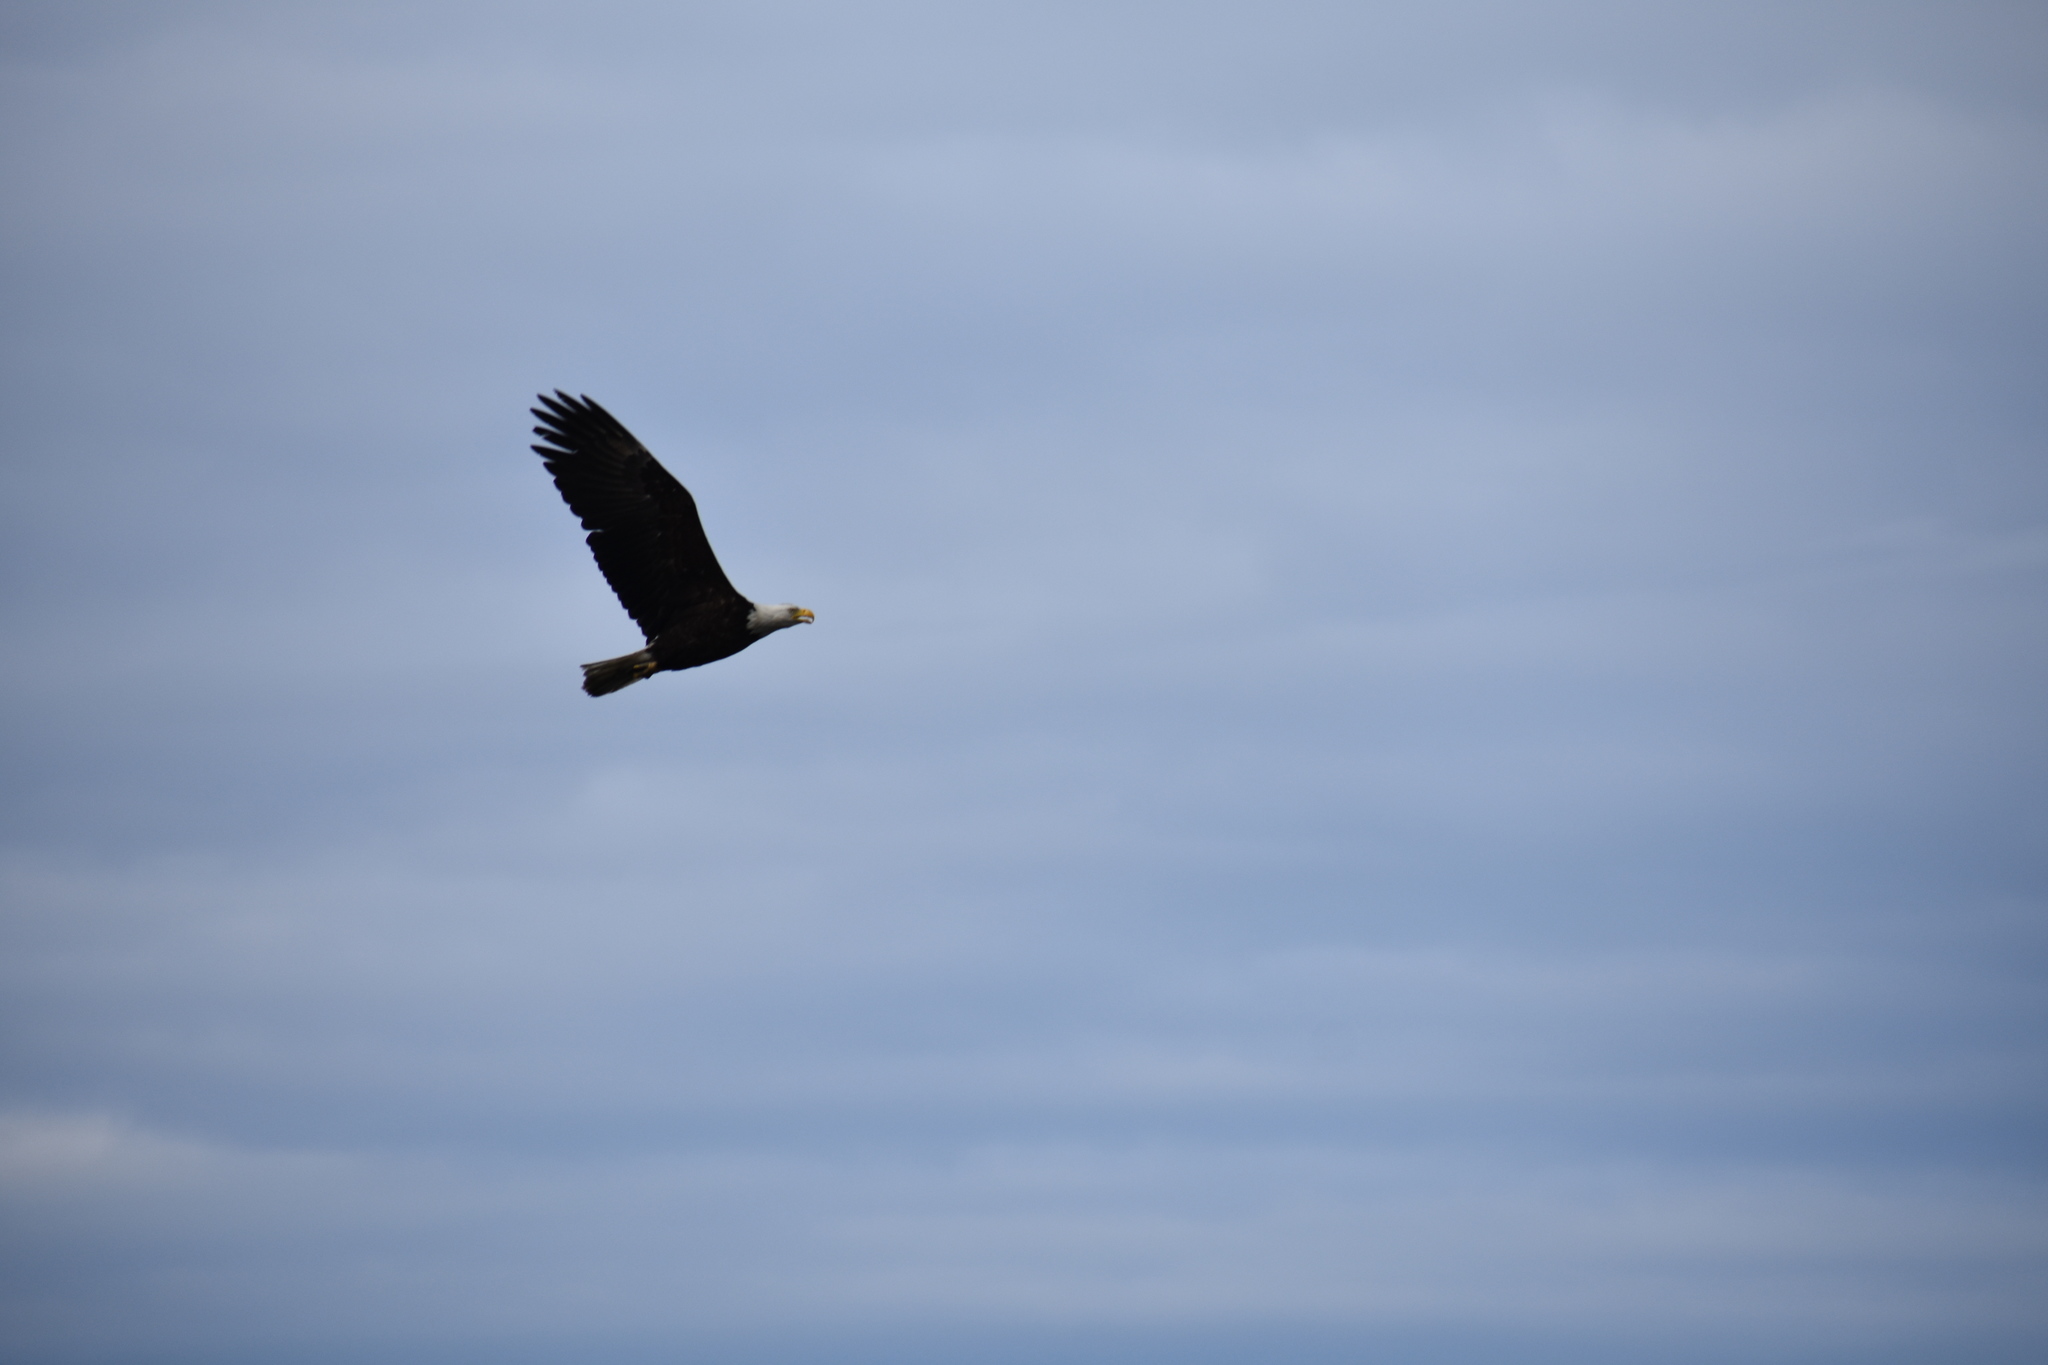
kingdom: Animalia
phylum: Chordata
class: Aves
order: Accipitriformes
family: Accipitridae
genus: Haliaeetus
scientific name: Haliaeetus leucocephalus
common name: Bald eagle
